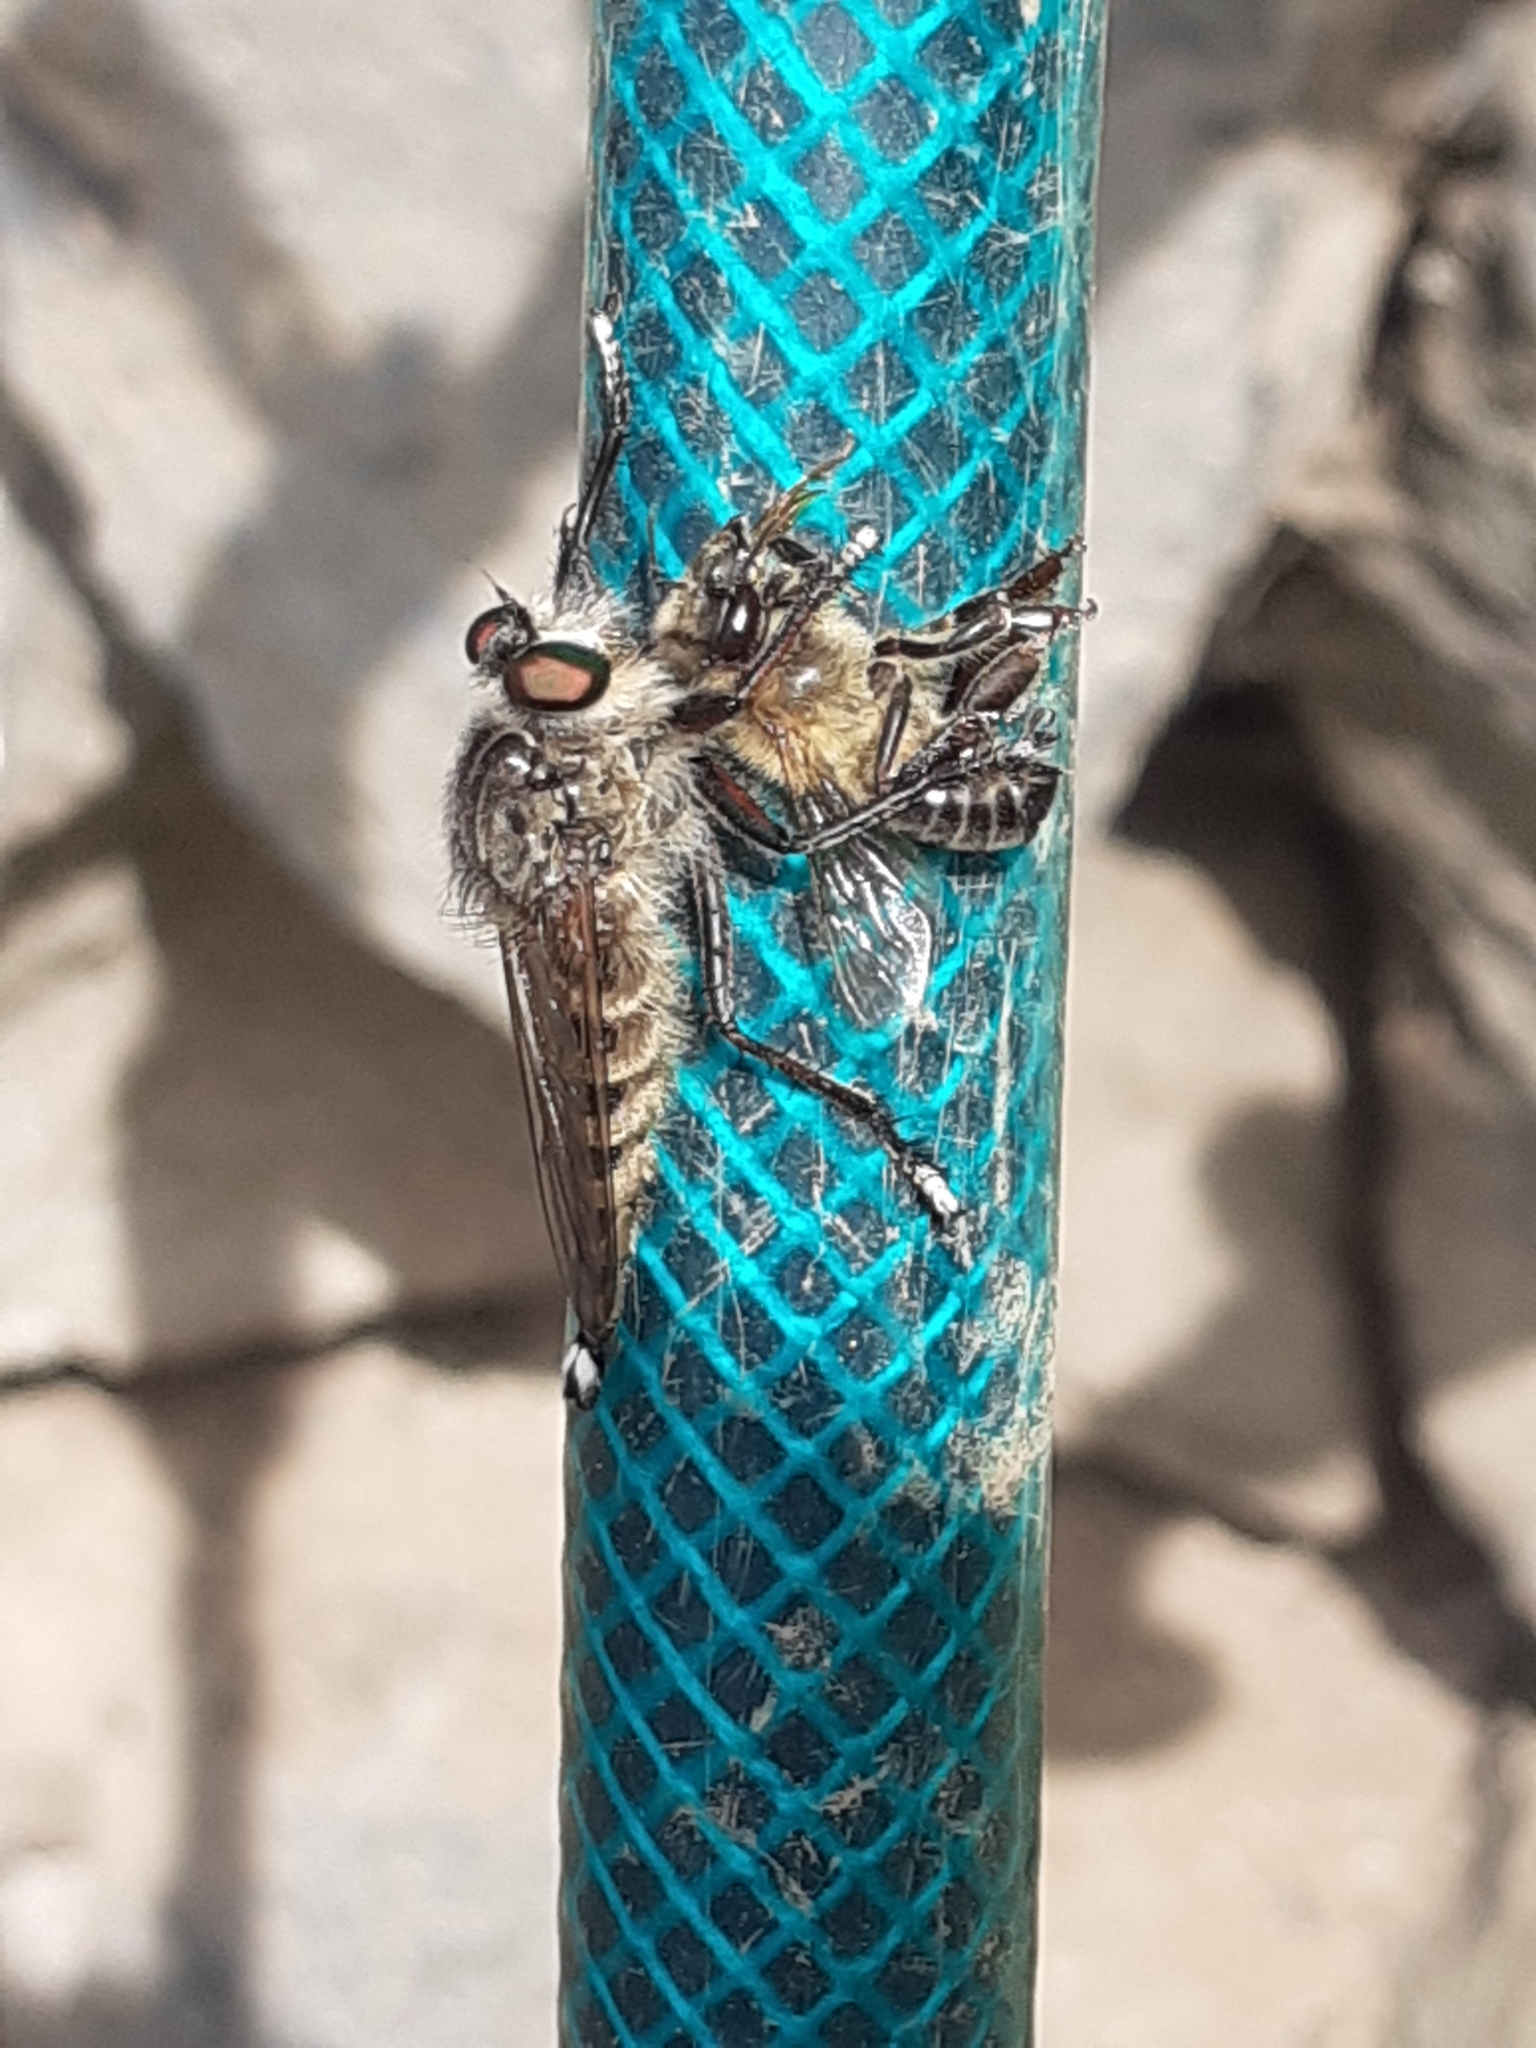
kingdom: Animalia
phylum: Arthropoda
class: Insecta
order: Diptera
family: Asilidae
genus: Promachus
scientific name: Promachus palmensis
